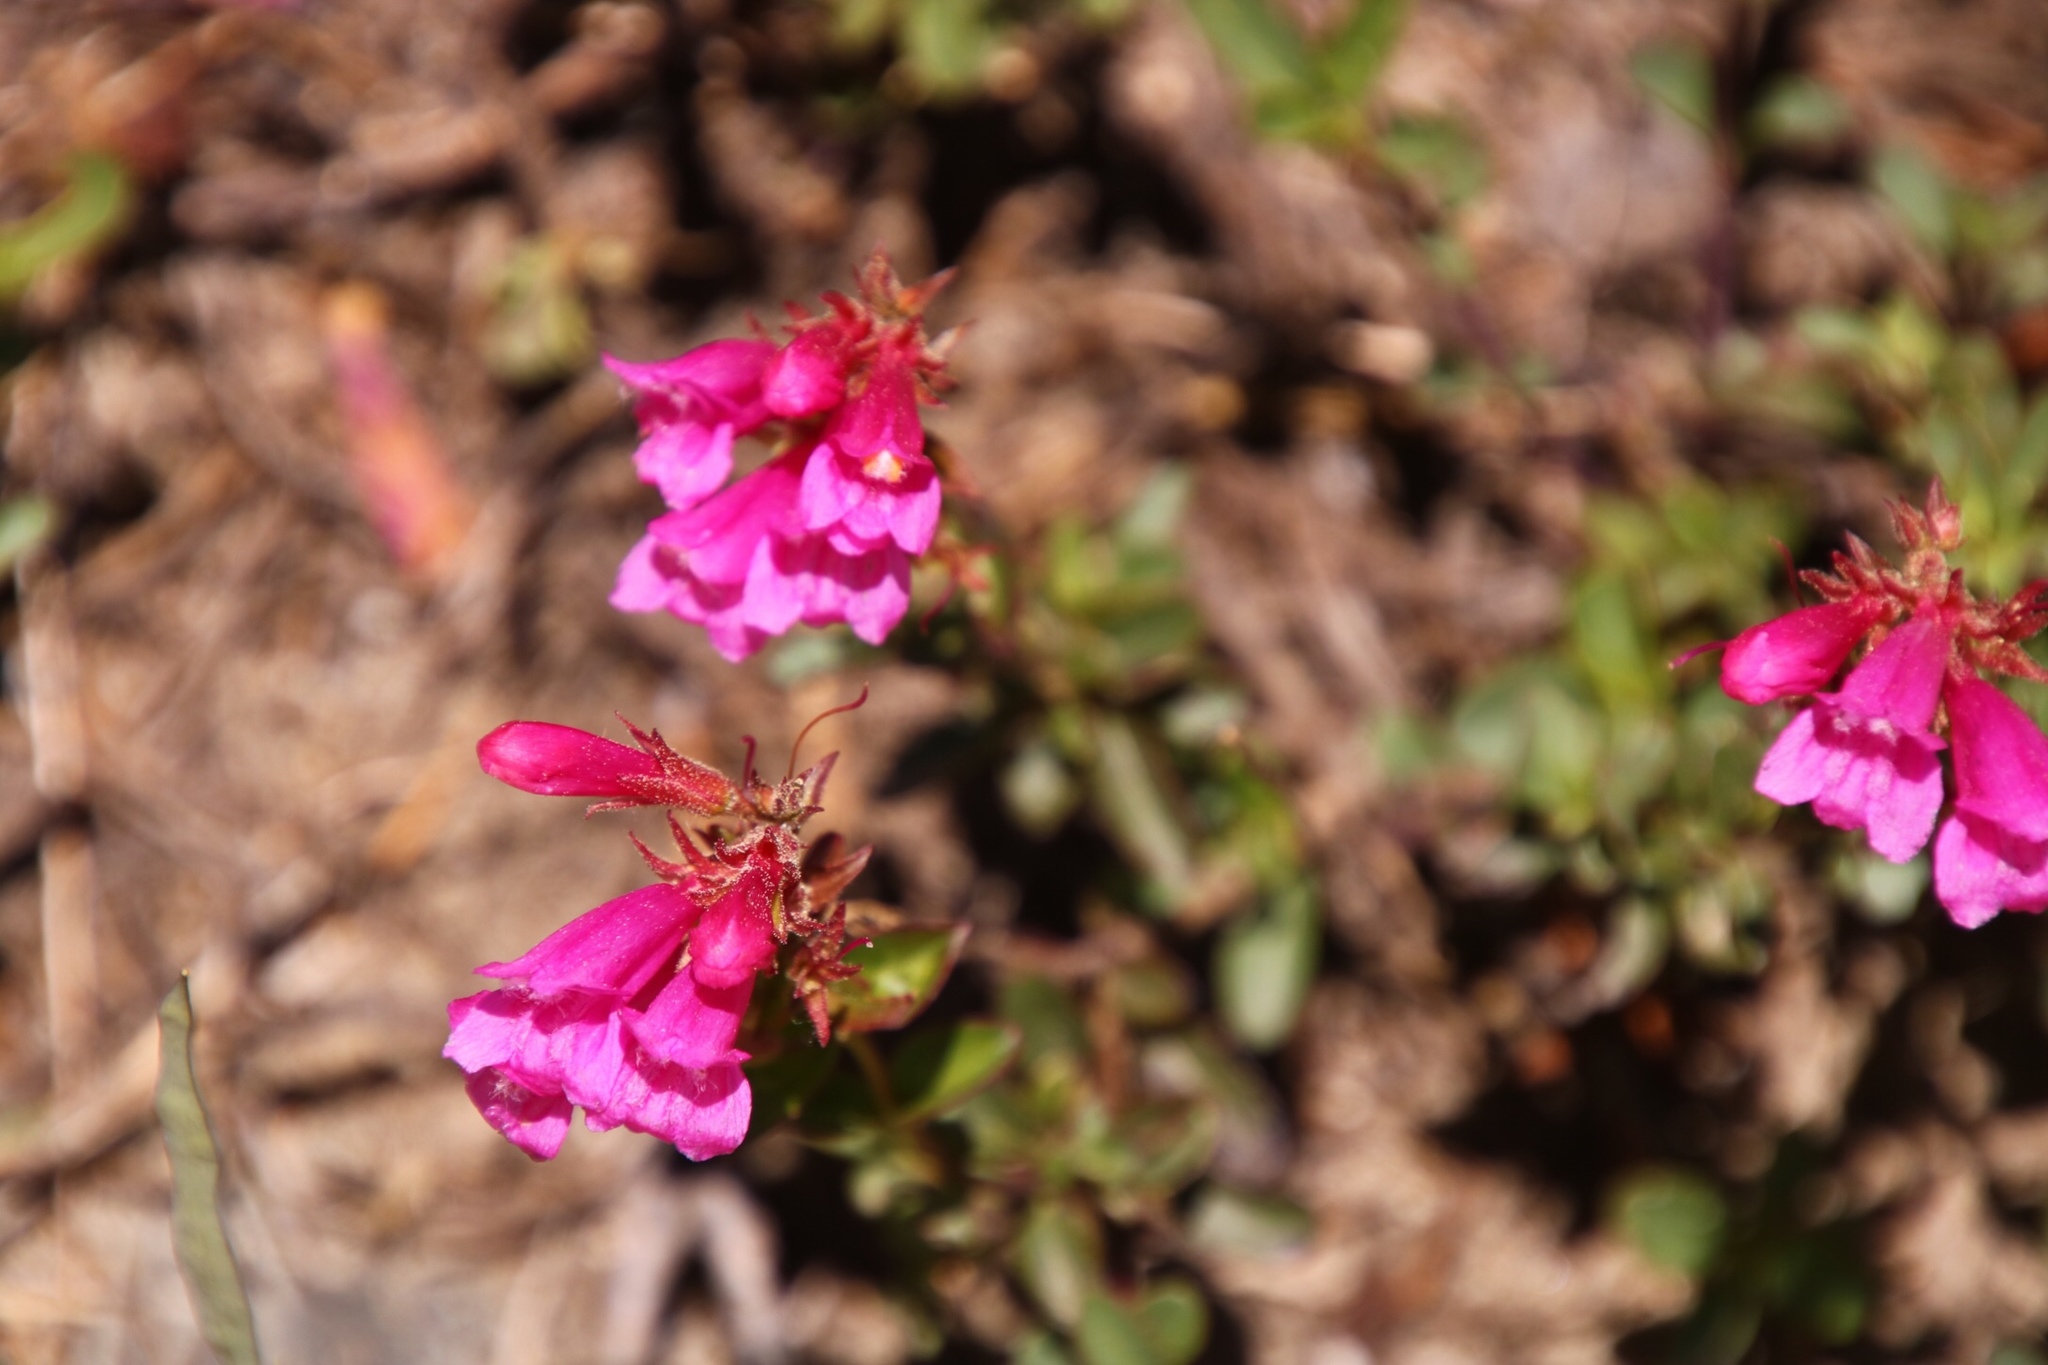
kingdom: Plantae
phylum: Tracheophyta
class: Magnoliopsida
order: Lamiales
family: Plantaginaceae
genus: Penstemon
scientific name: Penstemon newberryi
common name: Mountain-pride
